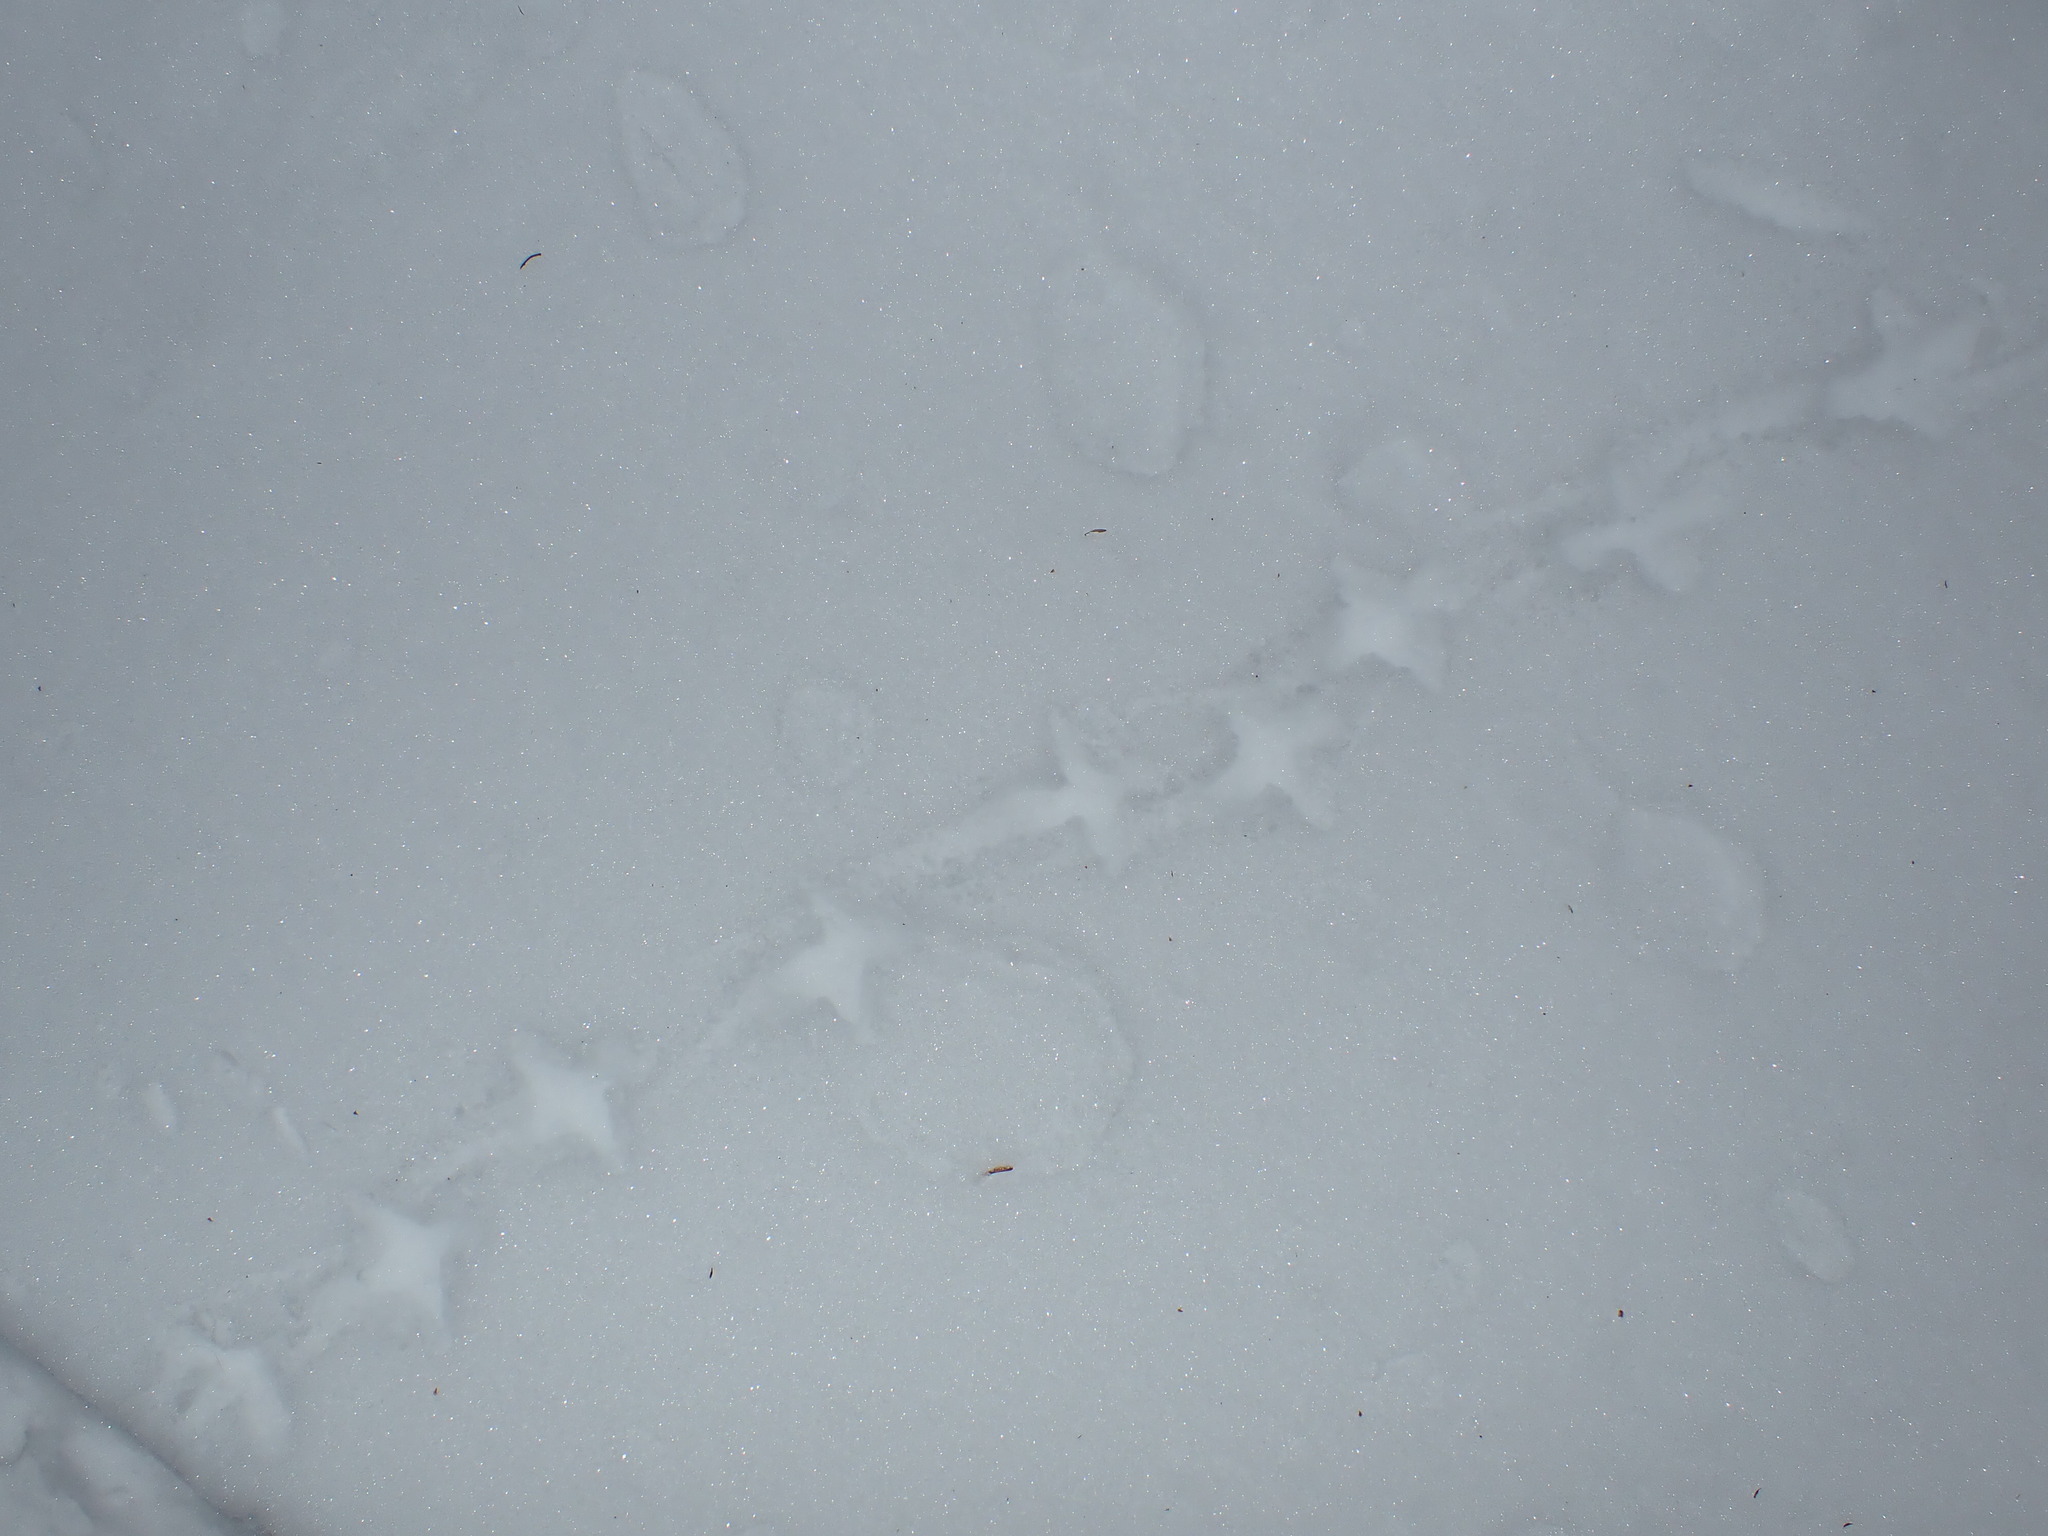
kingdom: Animalia
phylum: Chordata
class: Aves
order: Galliformes
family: Phasianidae
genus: Bonasa
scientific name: Bonasa umbellus
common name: Ruffed grouse
